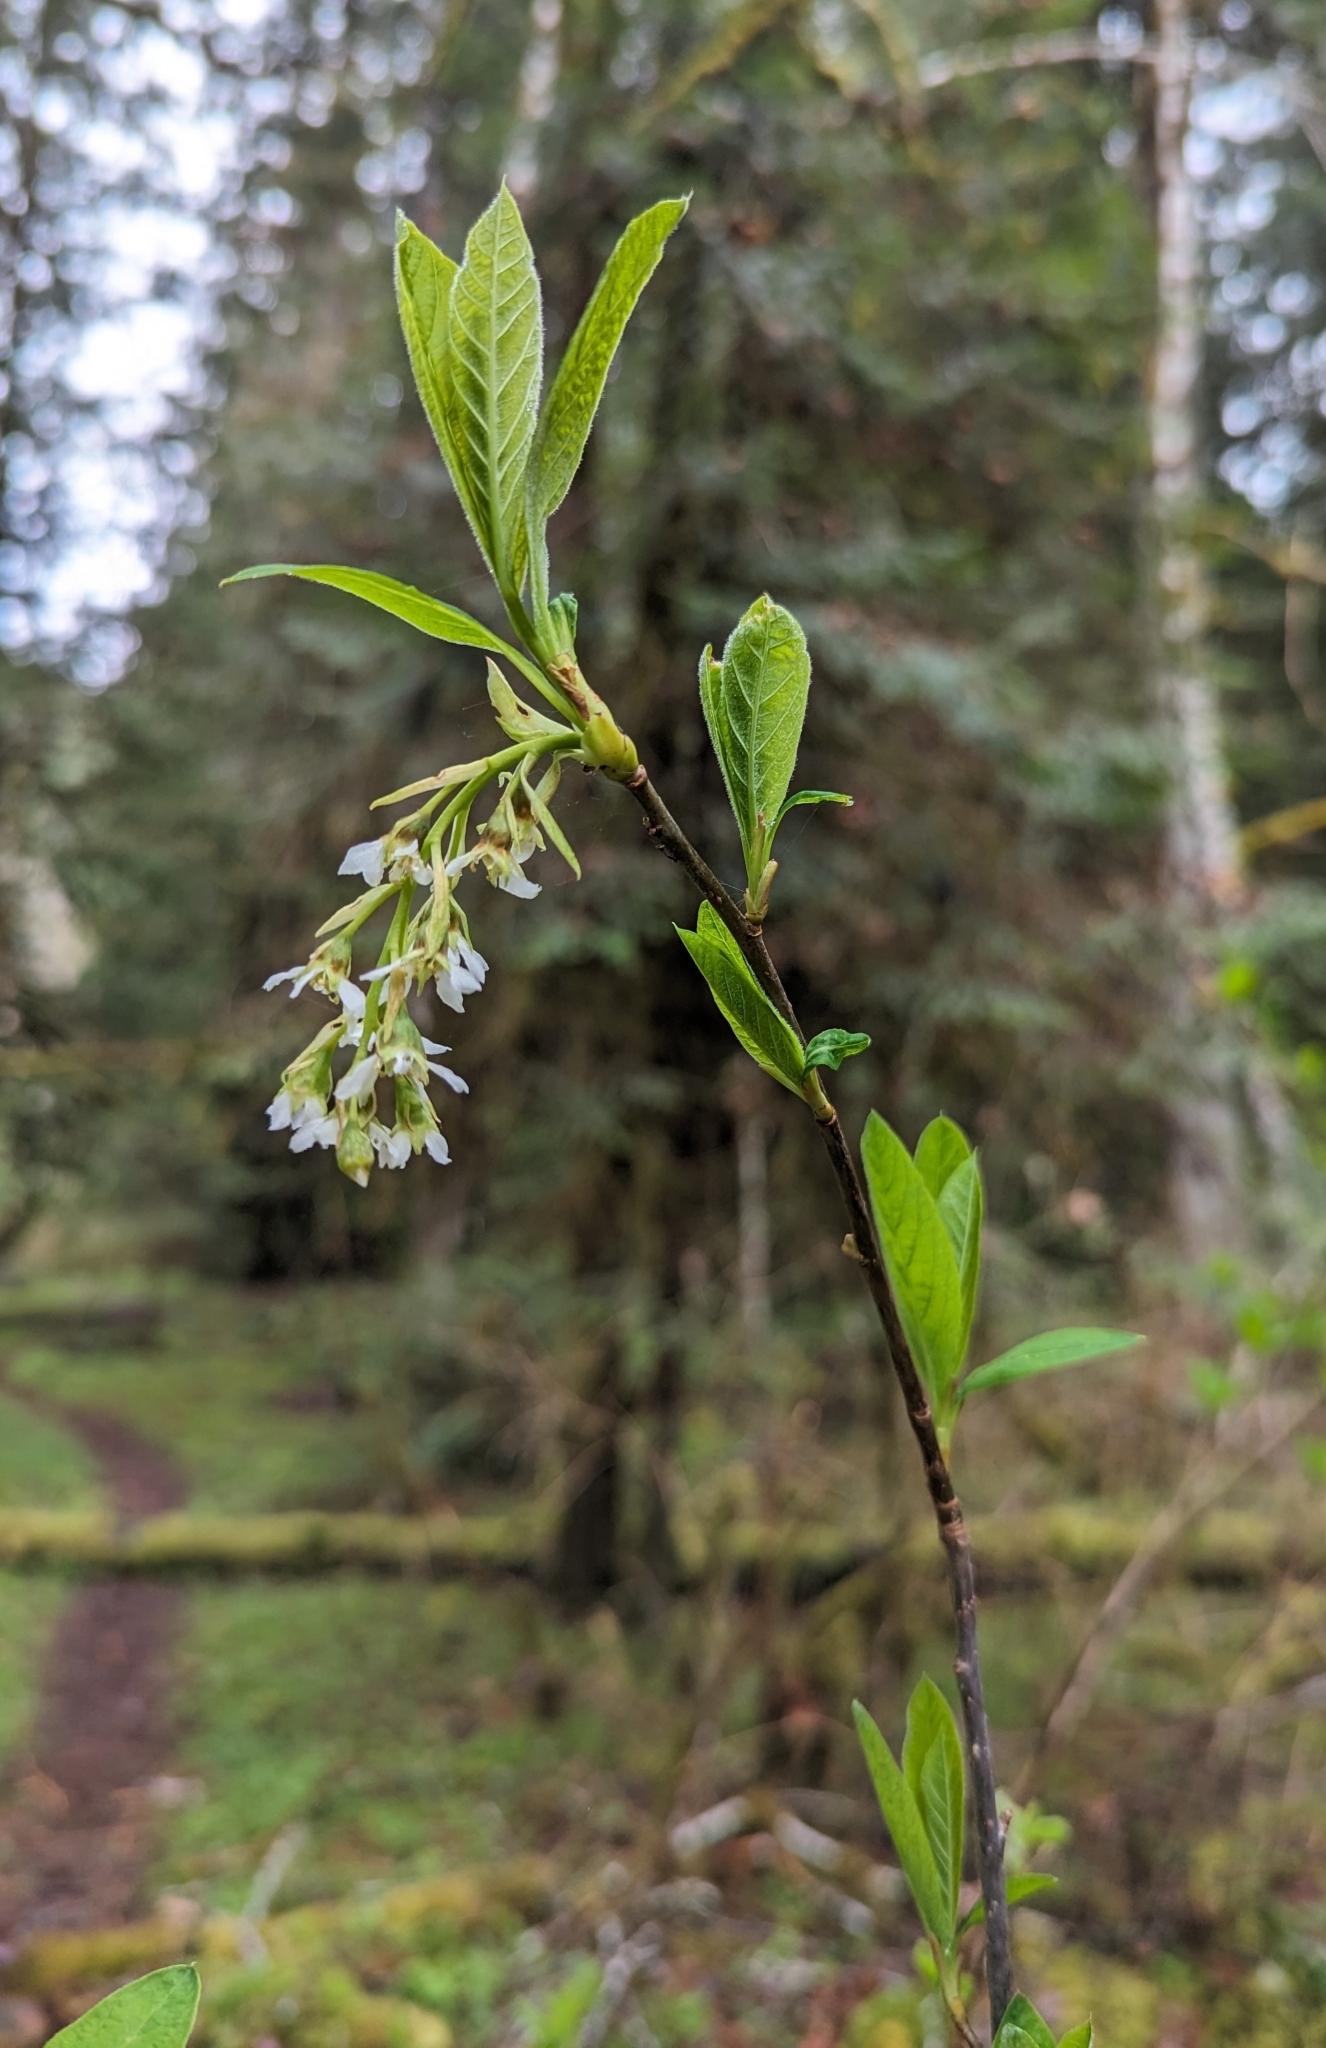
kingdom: Plantae
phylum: Tracheophyta
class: Magnoliopsida
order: Rosales
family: Rosaceae
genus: Oemleria
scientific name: Oemleria cerasiformis
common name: Osoberry
